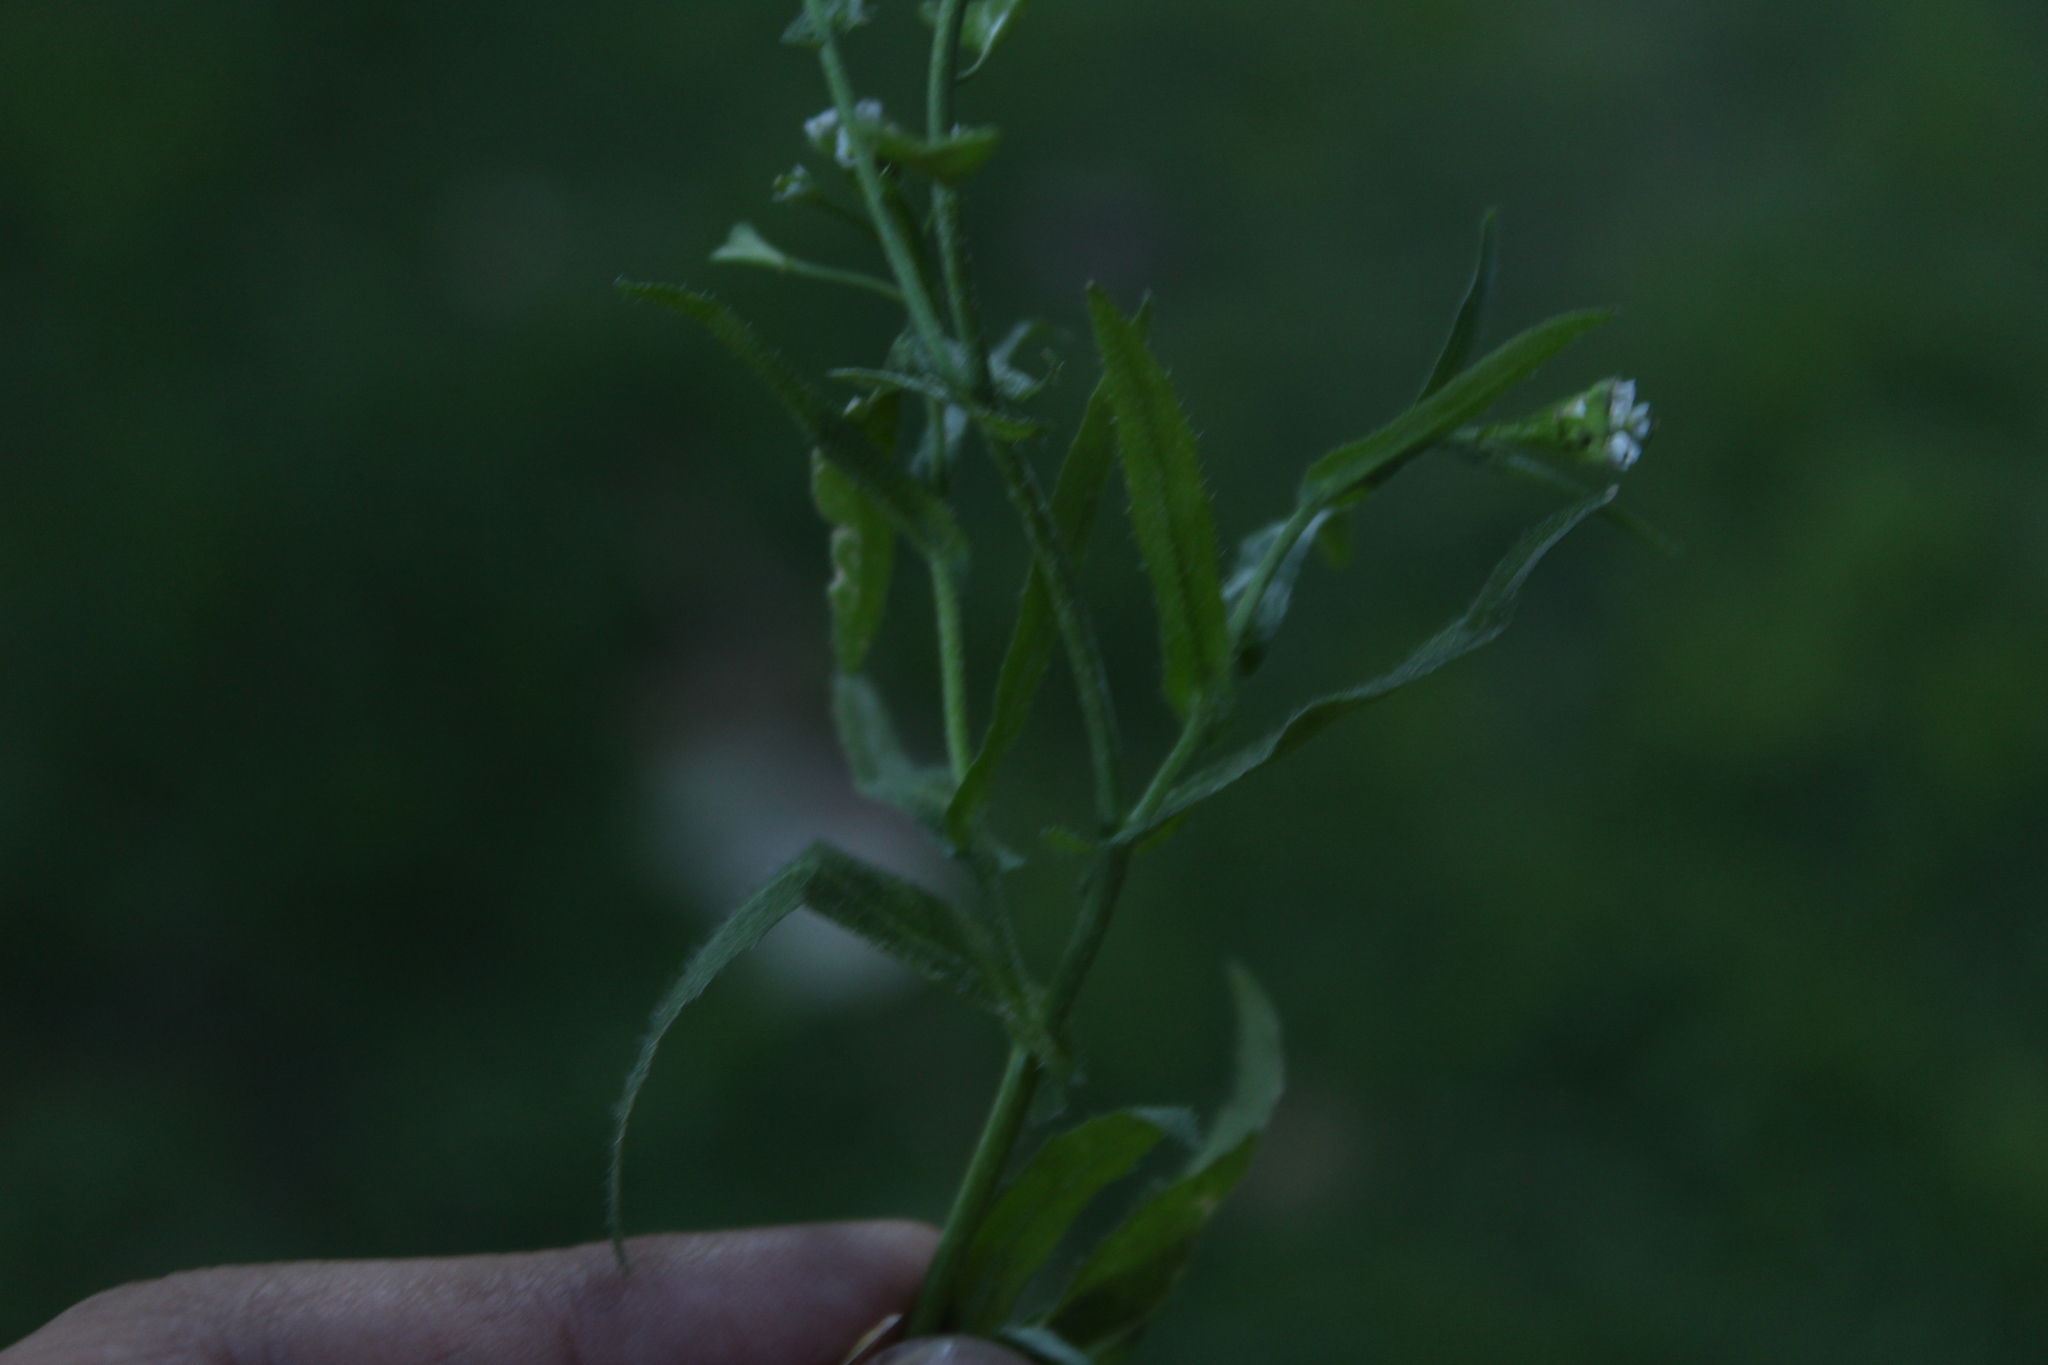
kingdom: Plantae
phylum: Tracheophyta
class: Magnoliopsida
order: Brassicales
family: Brassicaceae
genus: Capsella
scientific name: Capsella bursa-pastoris
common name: Shepherd's purse
